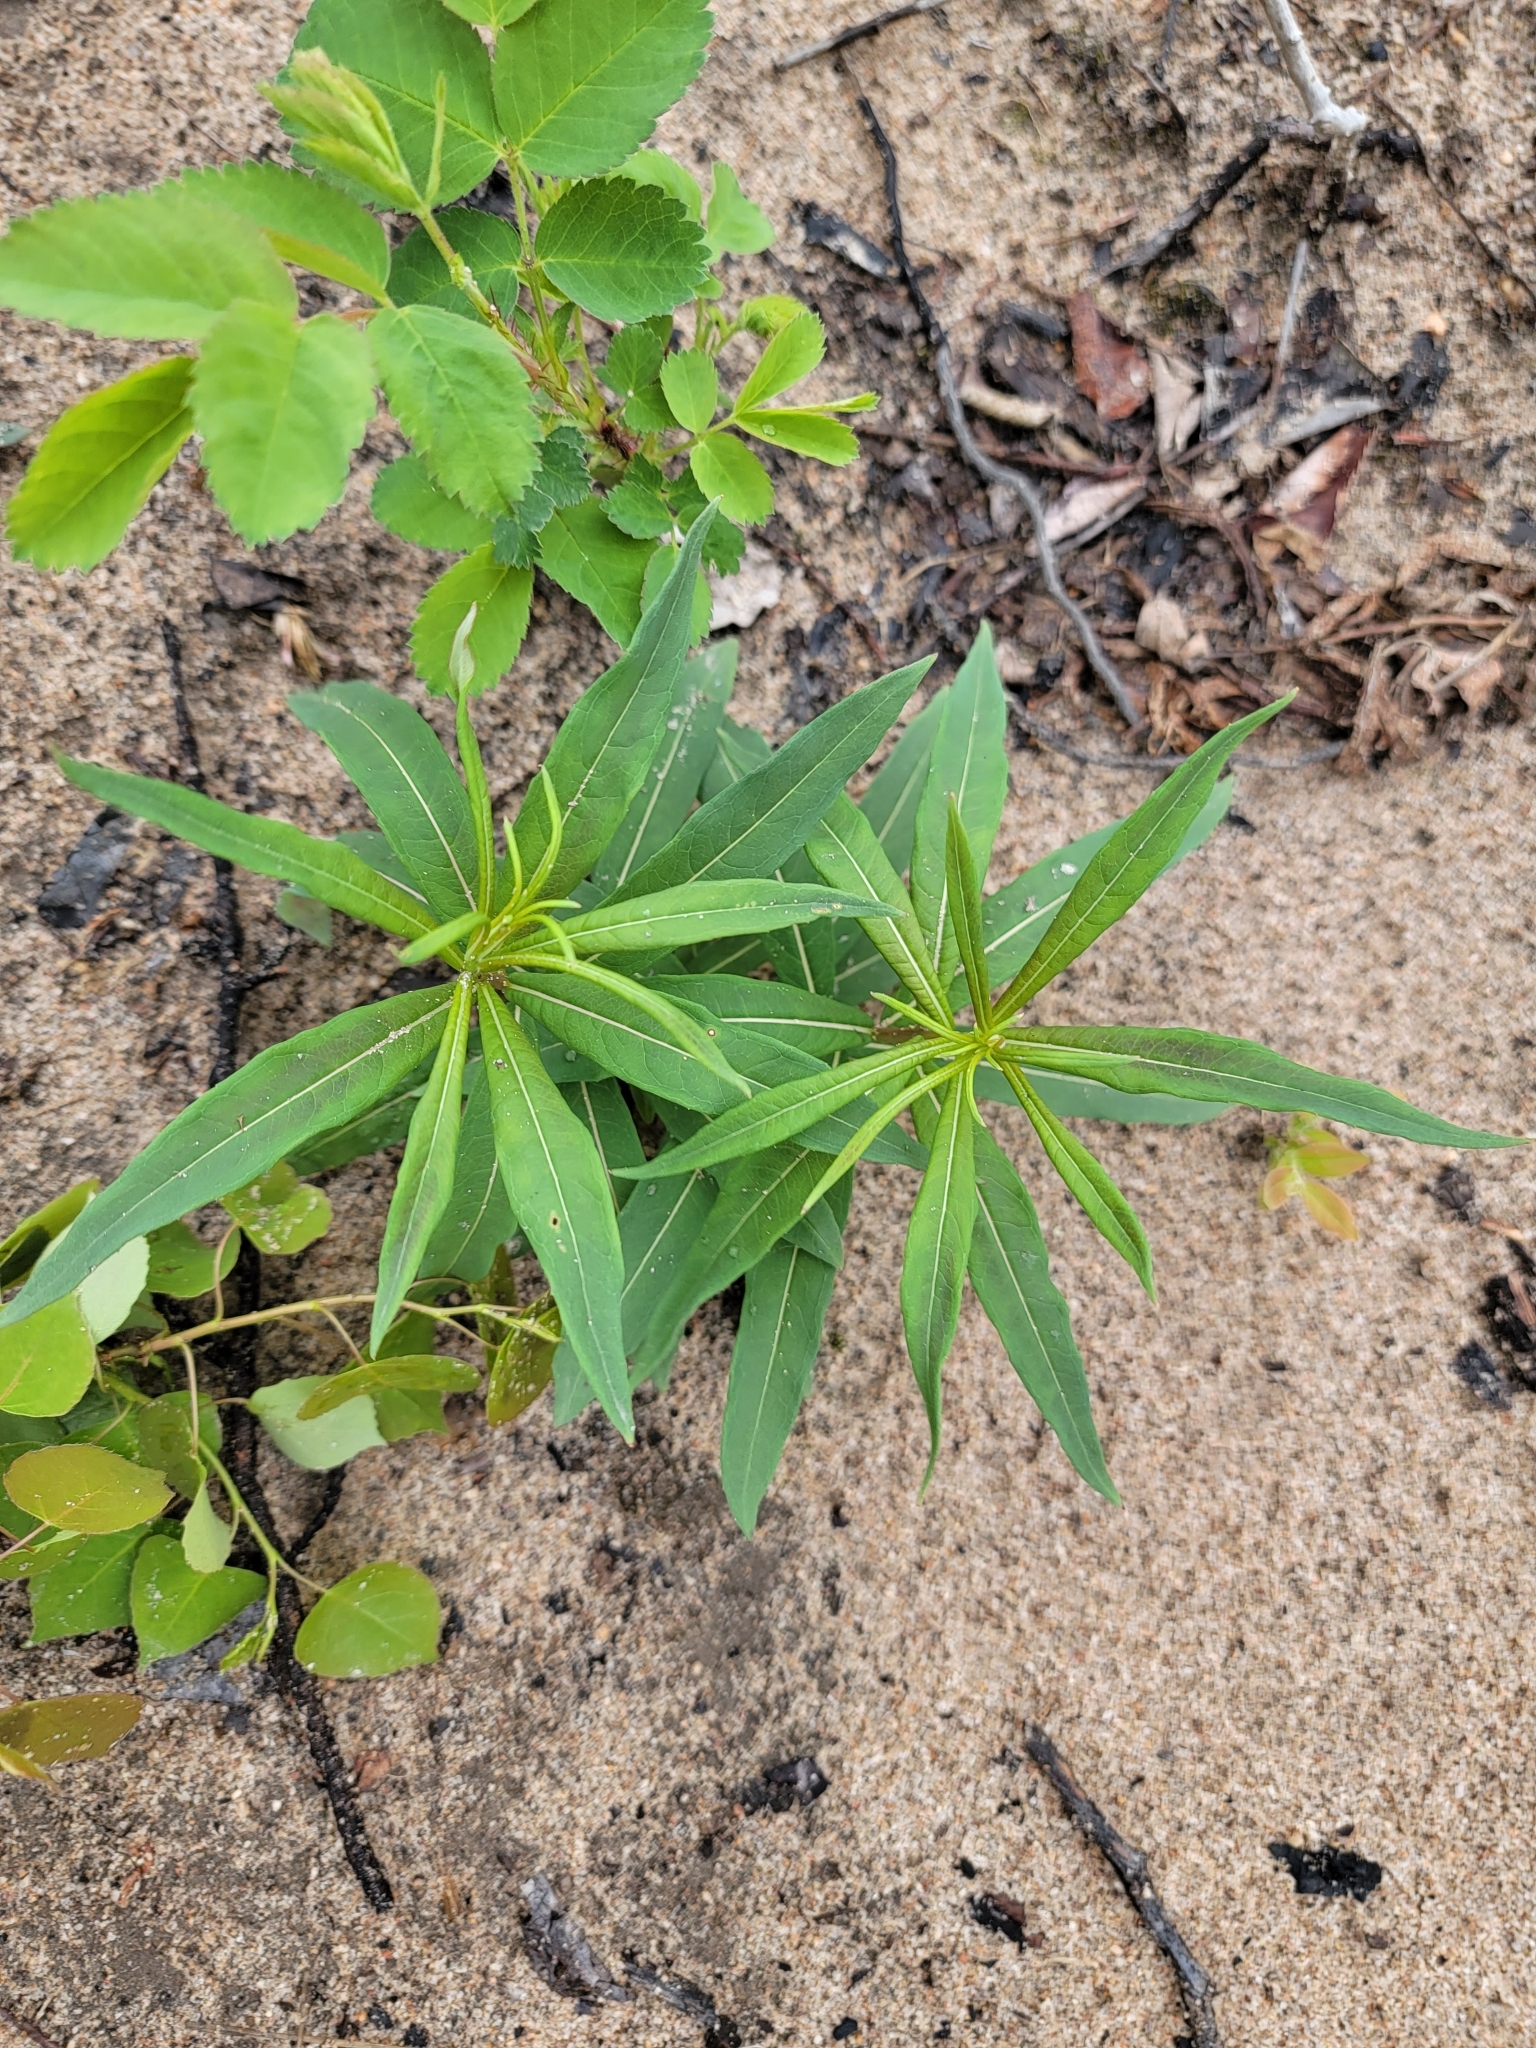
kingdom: Plantae
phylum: Tracheophyta
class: Magnoliopsida
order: Myrtales
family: Onagraceae
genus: Chamaenerion
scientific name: Chamaenerion angustifolium
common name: Fireweed
